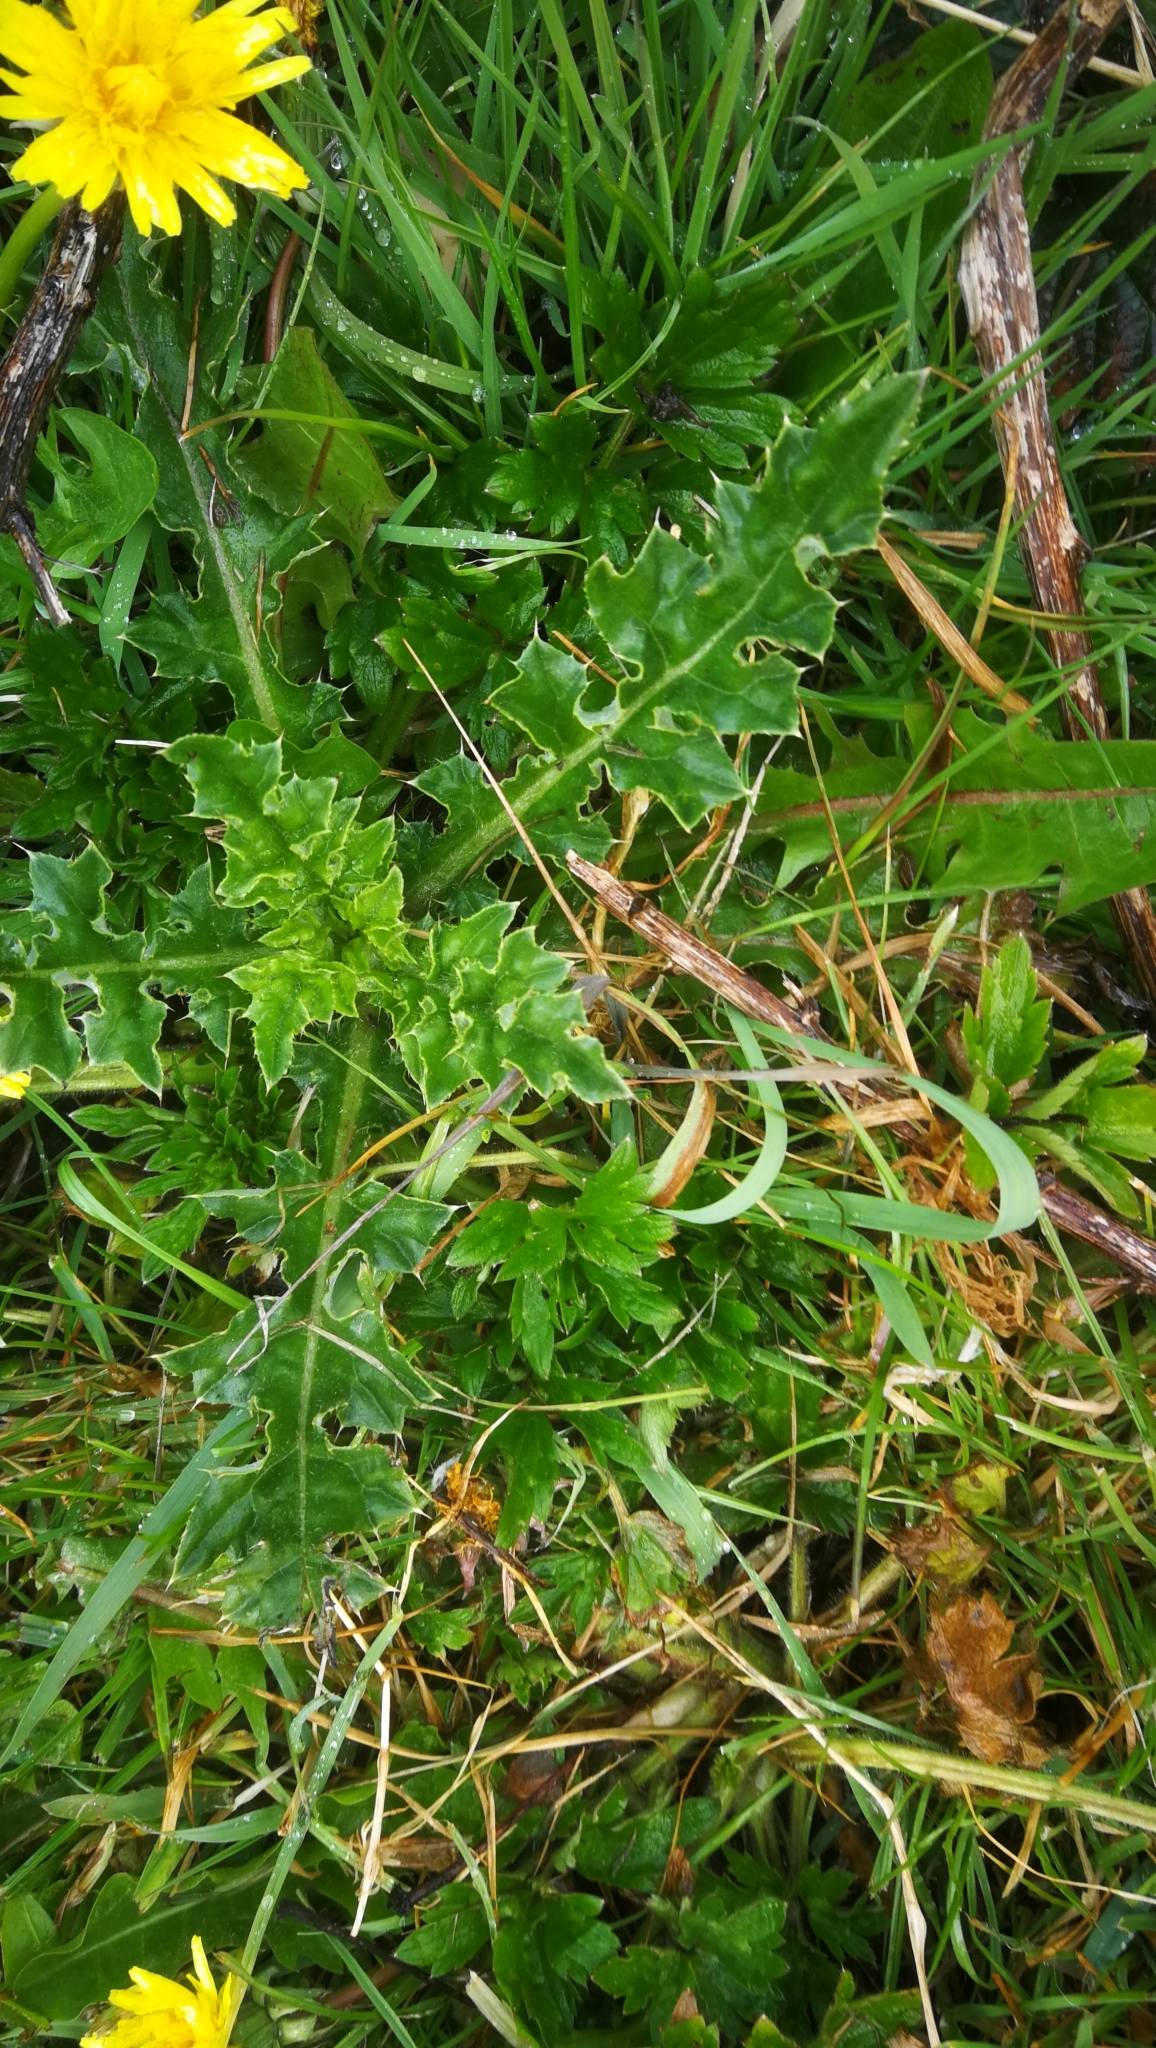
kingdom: Plantae
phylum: Tracheophyta
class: Magnoliopsida
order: Asterales
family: Asteraceae
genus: Cirsium
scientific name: Cirsium arvense
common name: Creeping thistle
